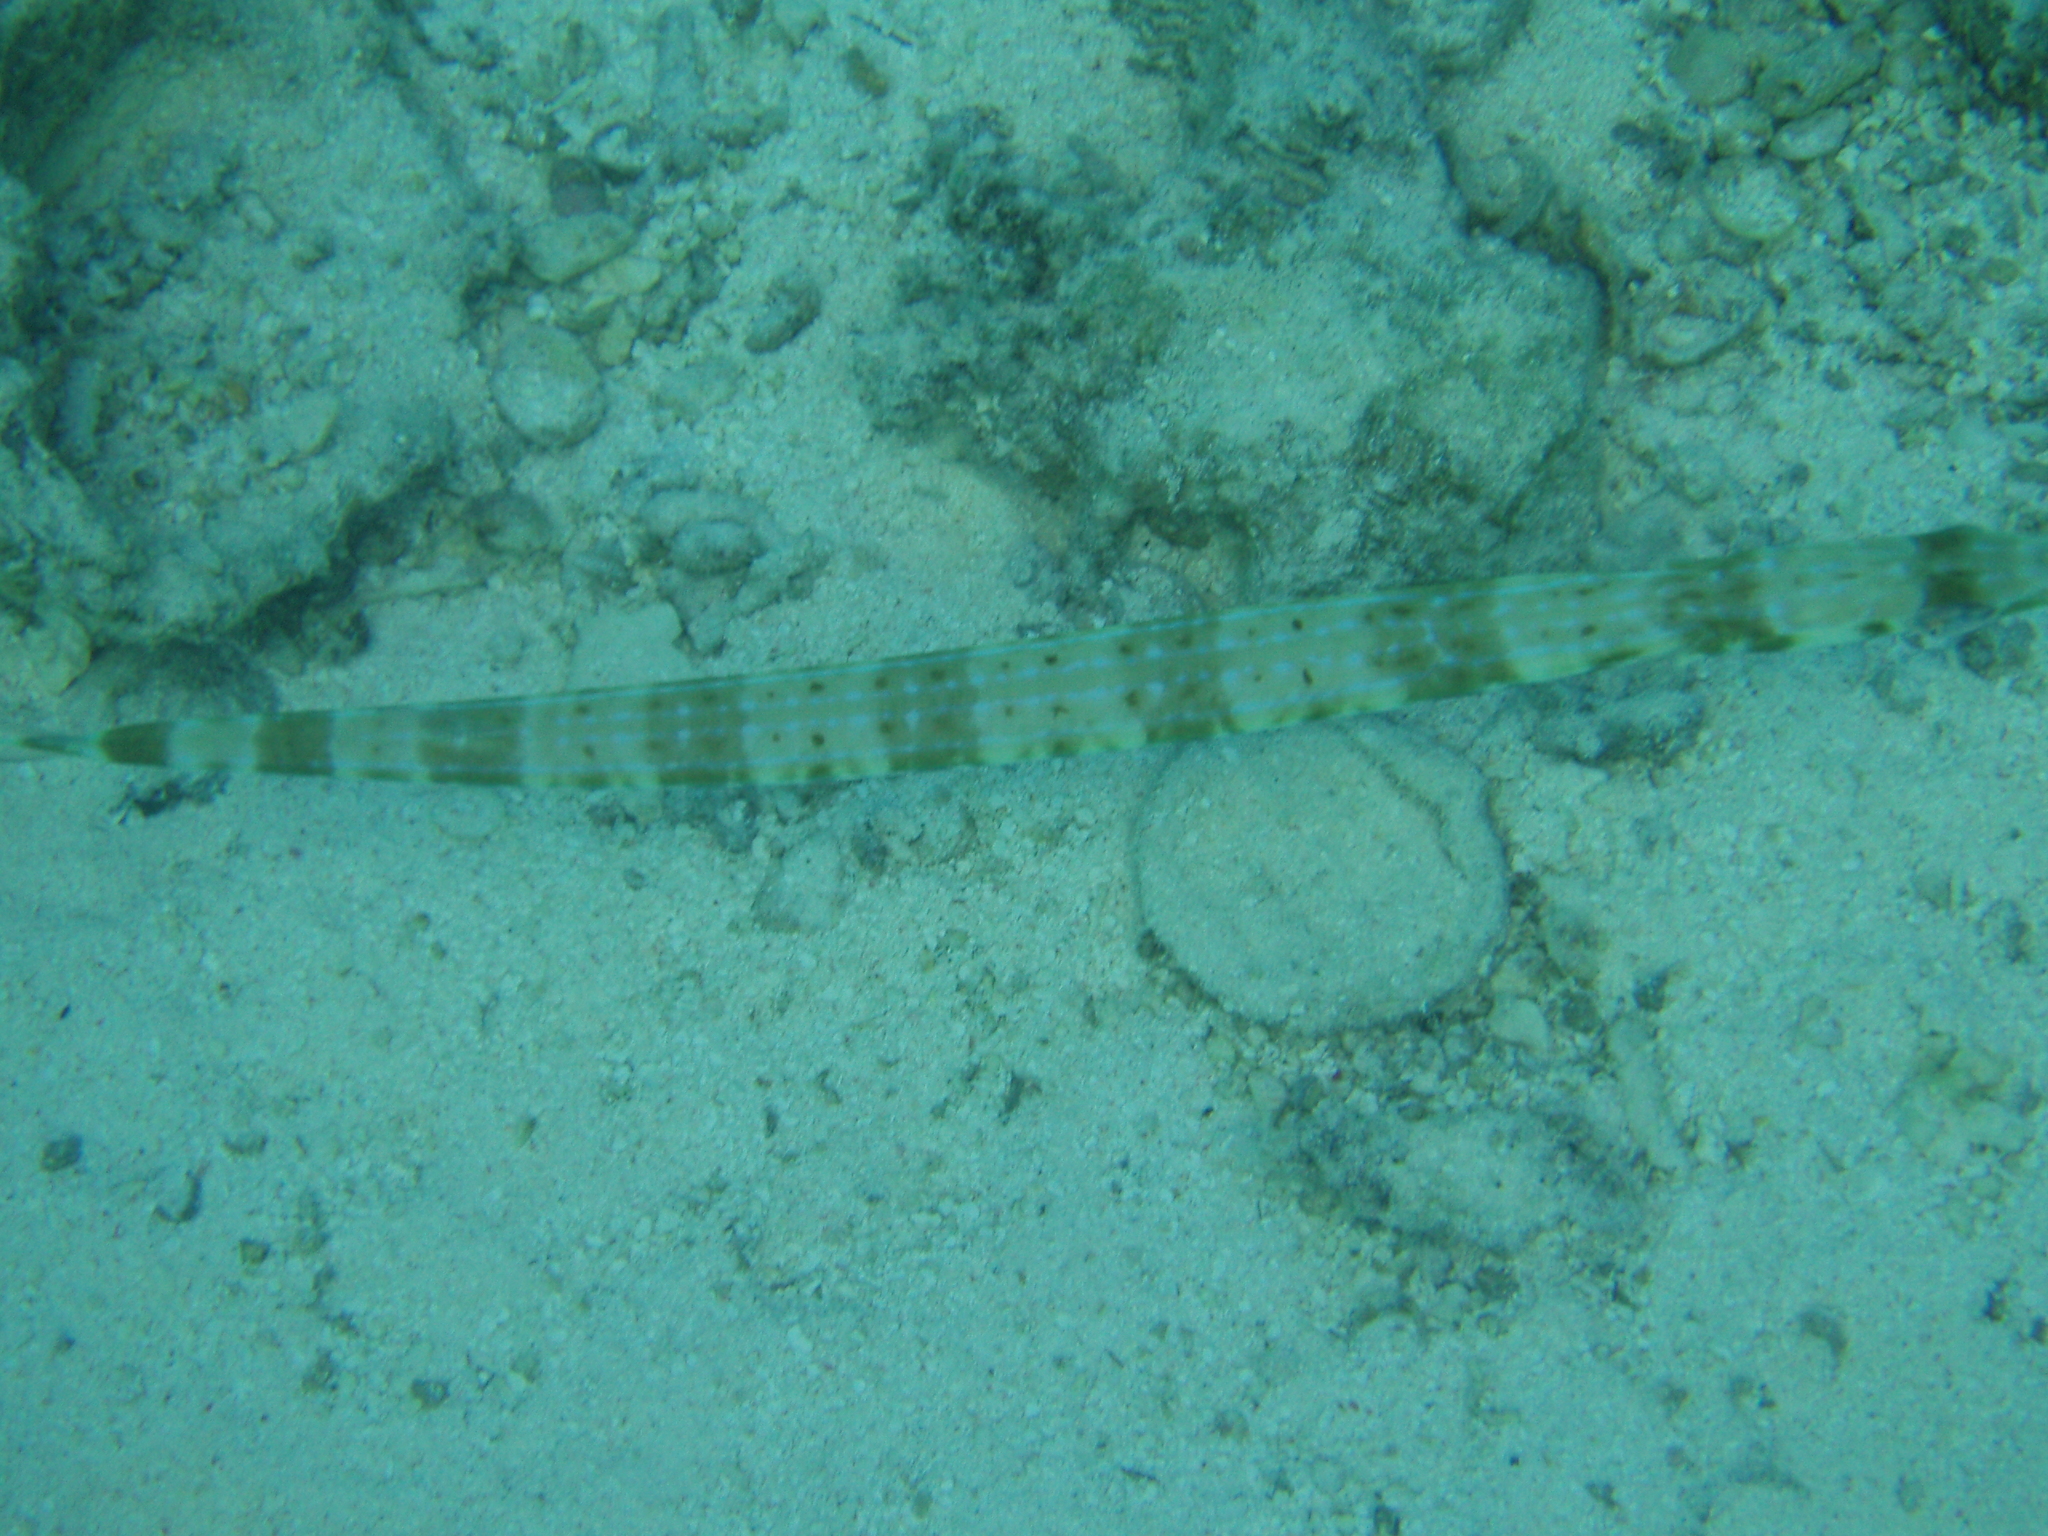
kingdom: Animalia
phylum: Chordata
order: Syngnathiformes
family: Fistulariidae
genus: Fistularia
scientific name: Fistularia commersonii
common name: Bluespotted cornetfish
